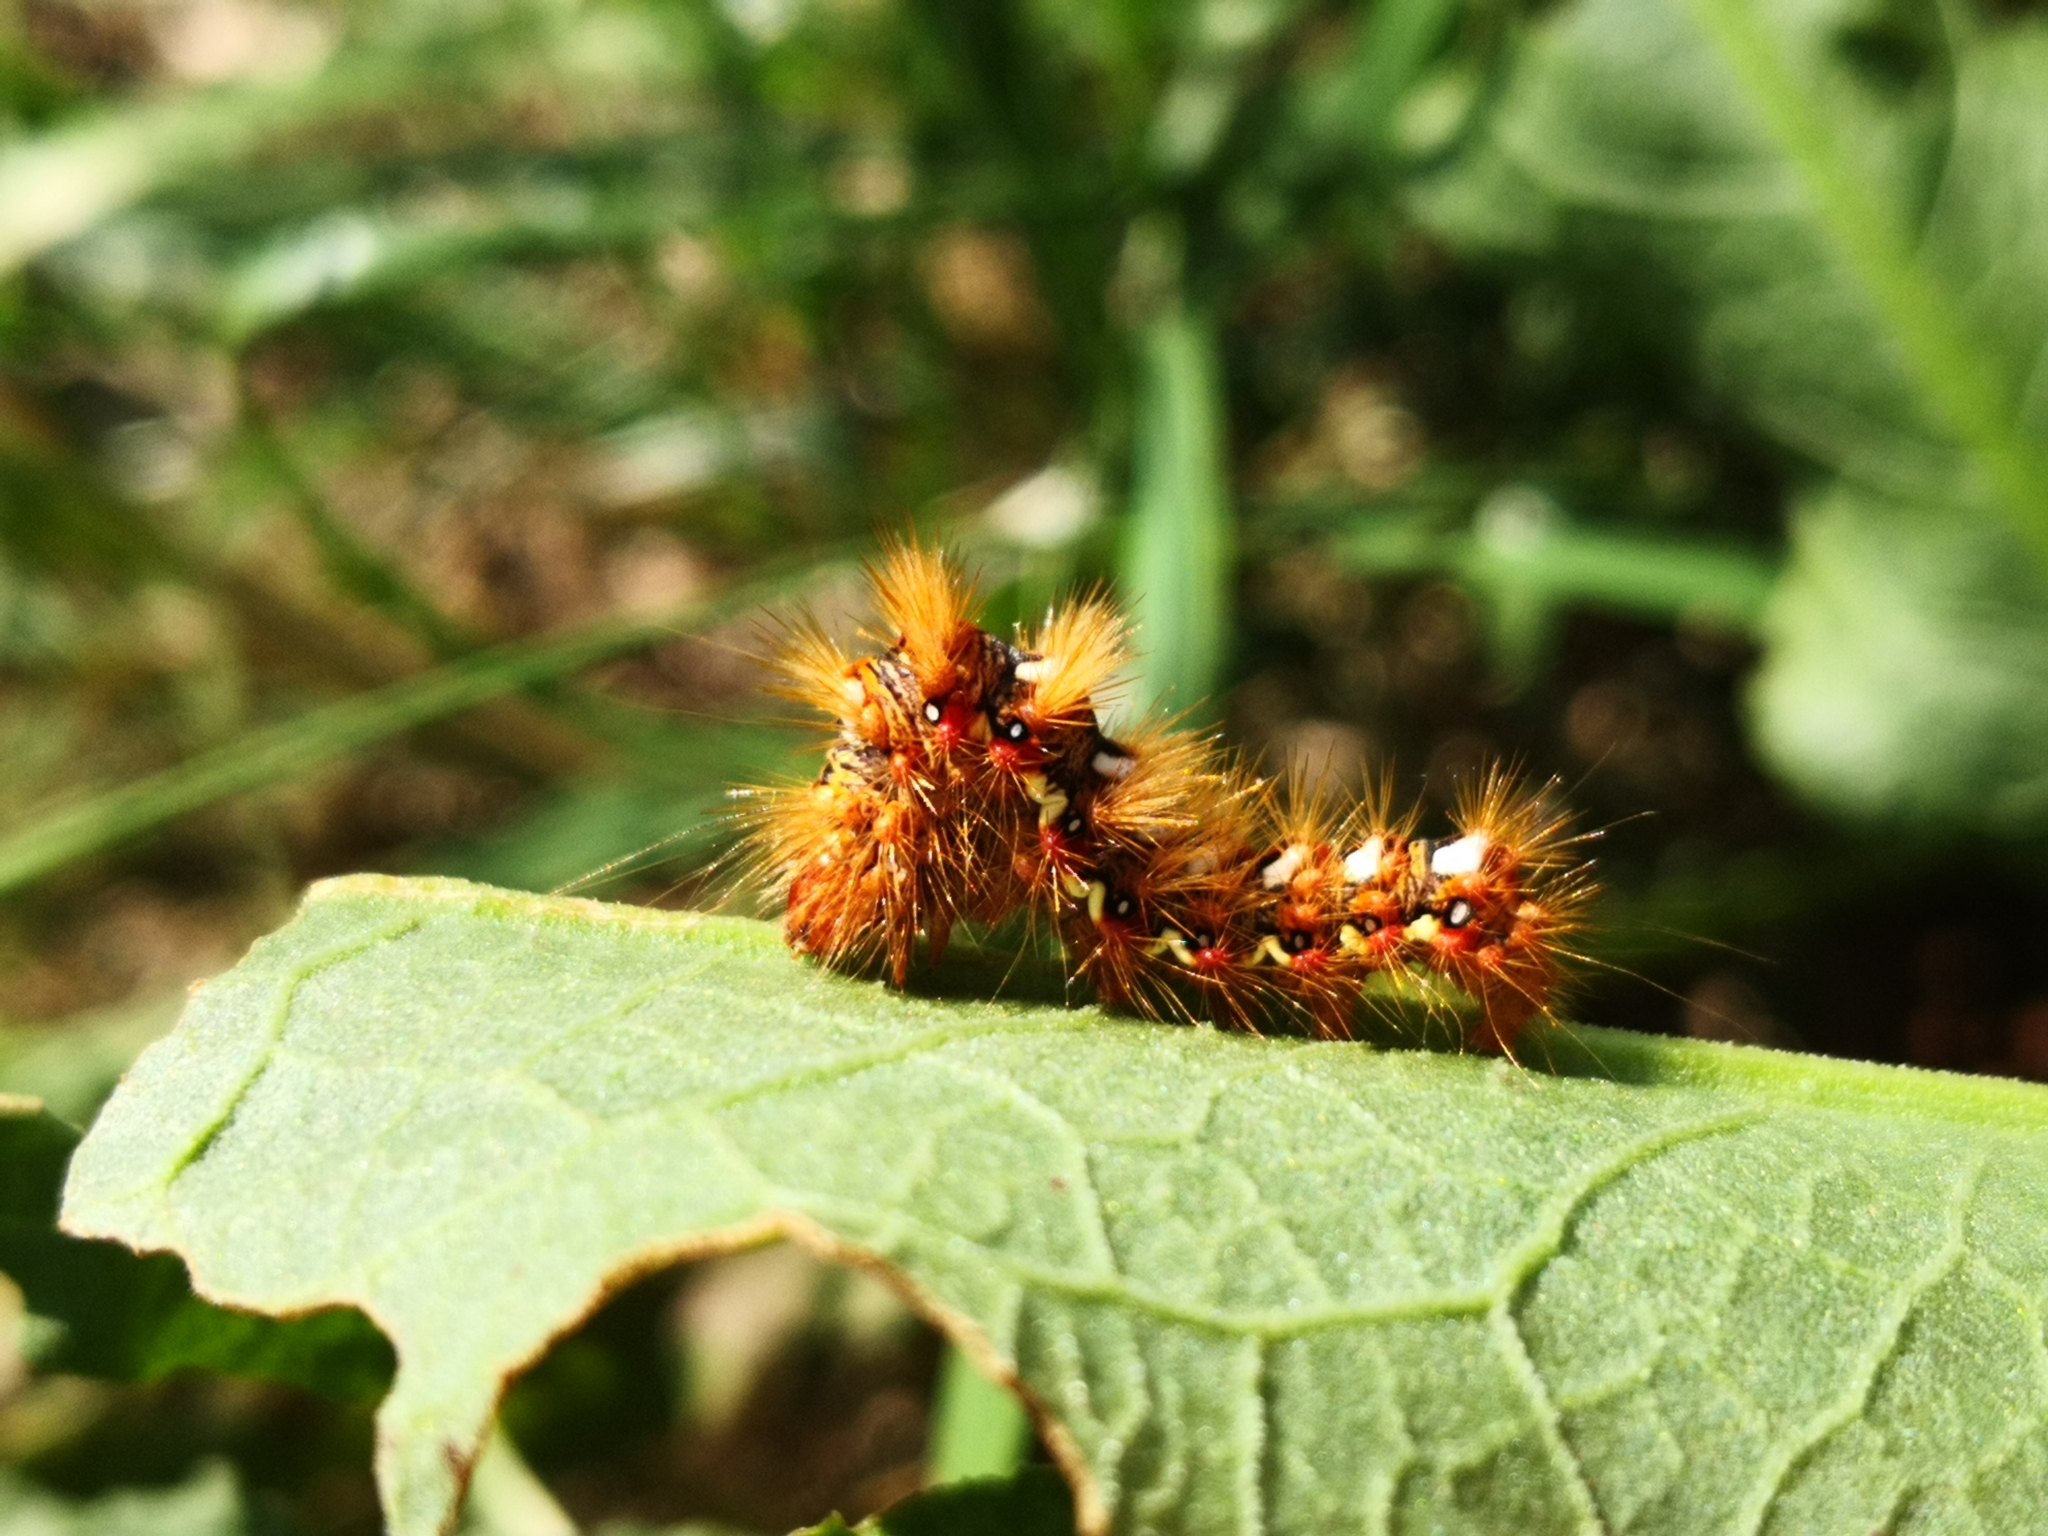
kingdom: Animalia
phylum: Arthropoda
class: Insecta
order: Lepidoptera
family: Noctuidae
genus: Acronicta
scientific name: Acronicta rumicis
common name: Knot grass
